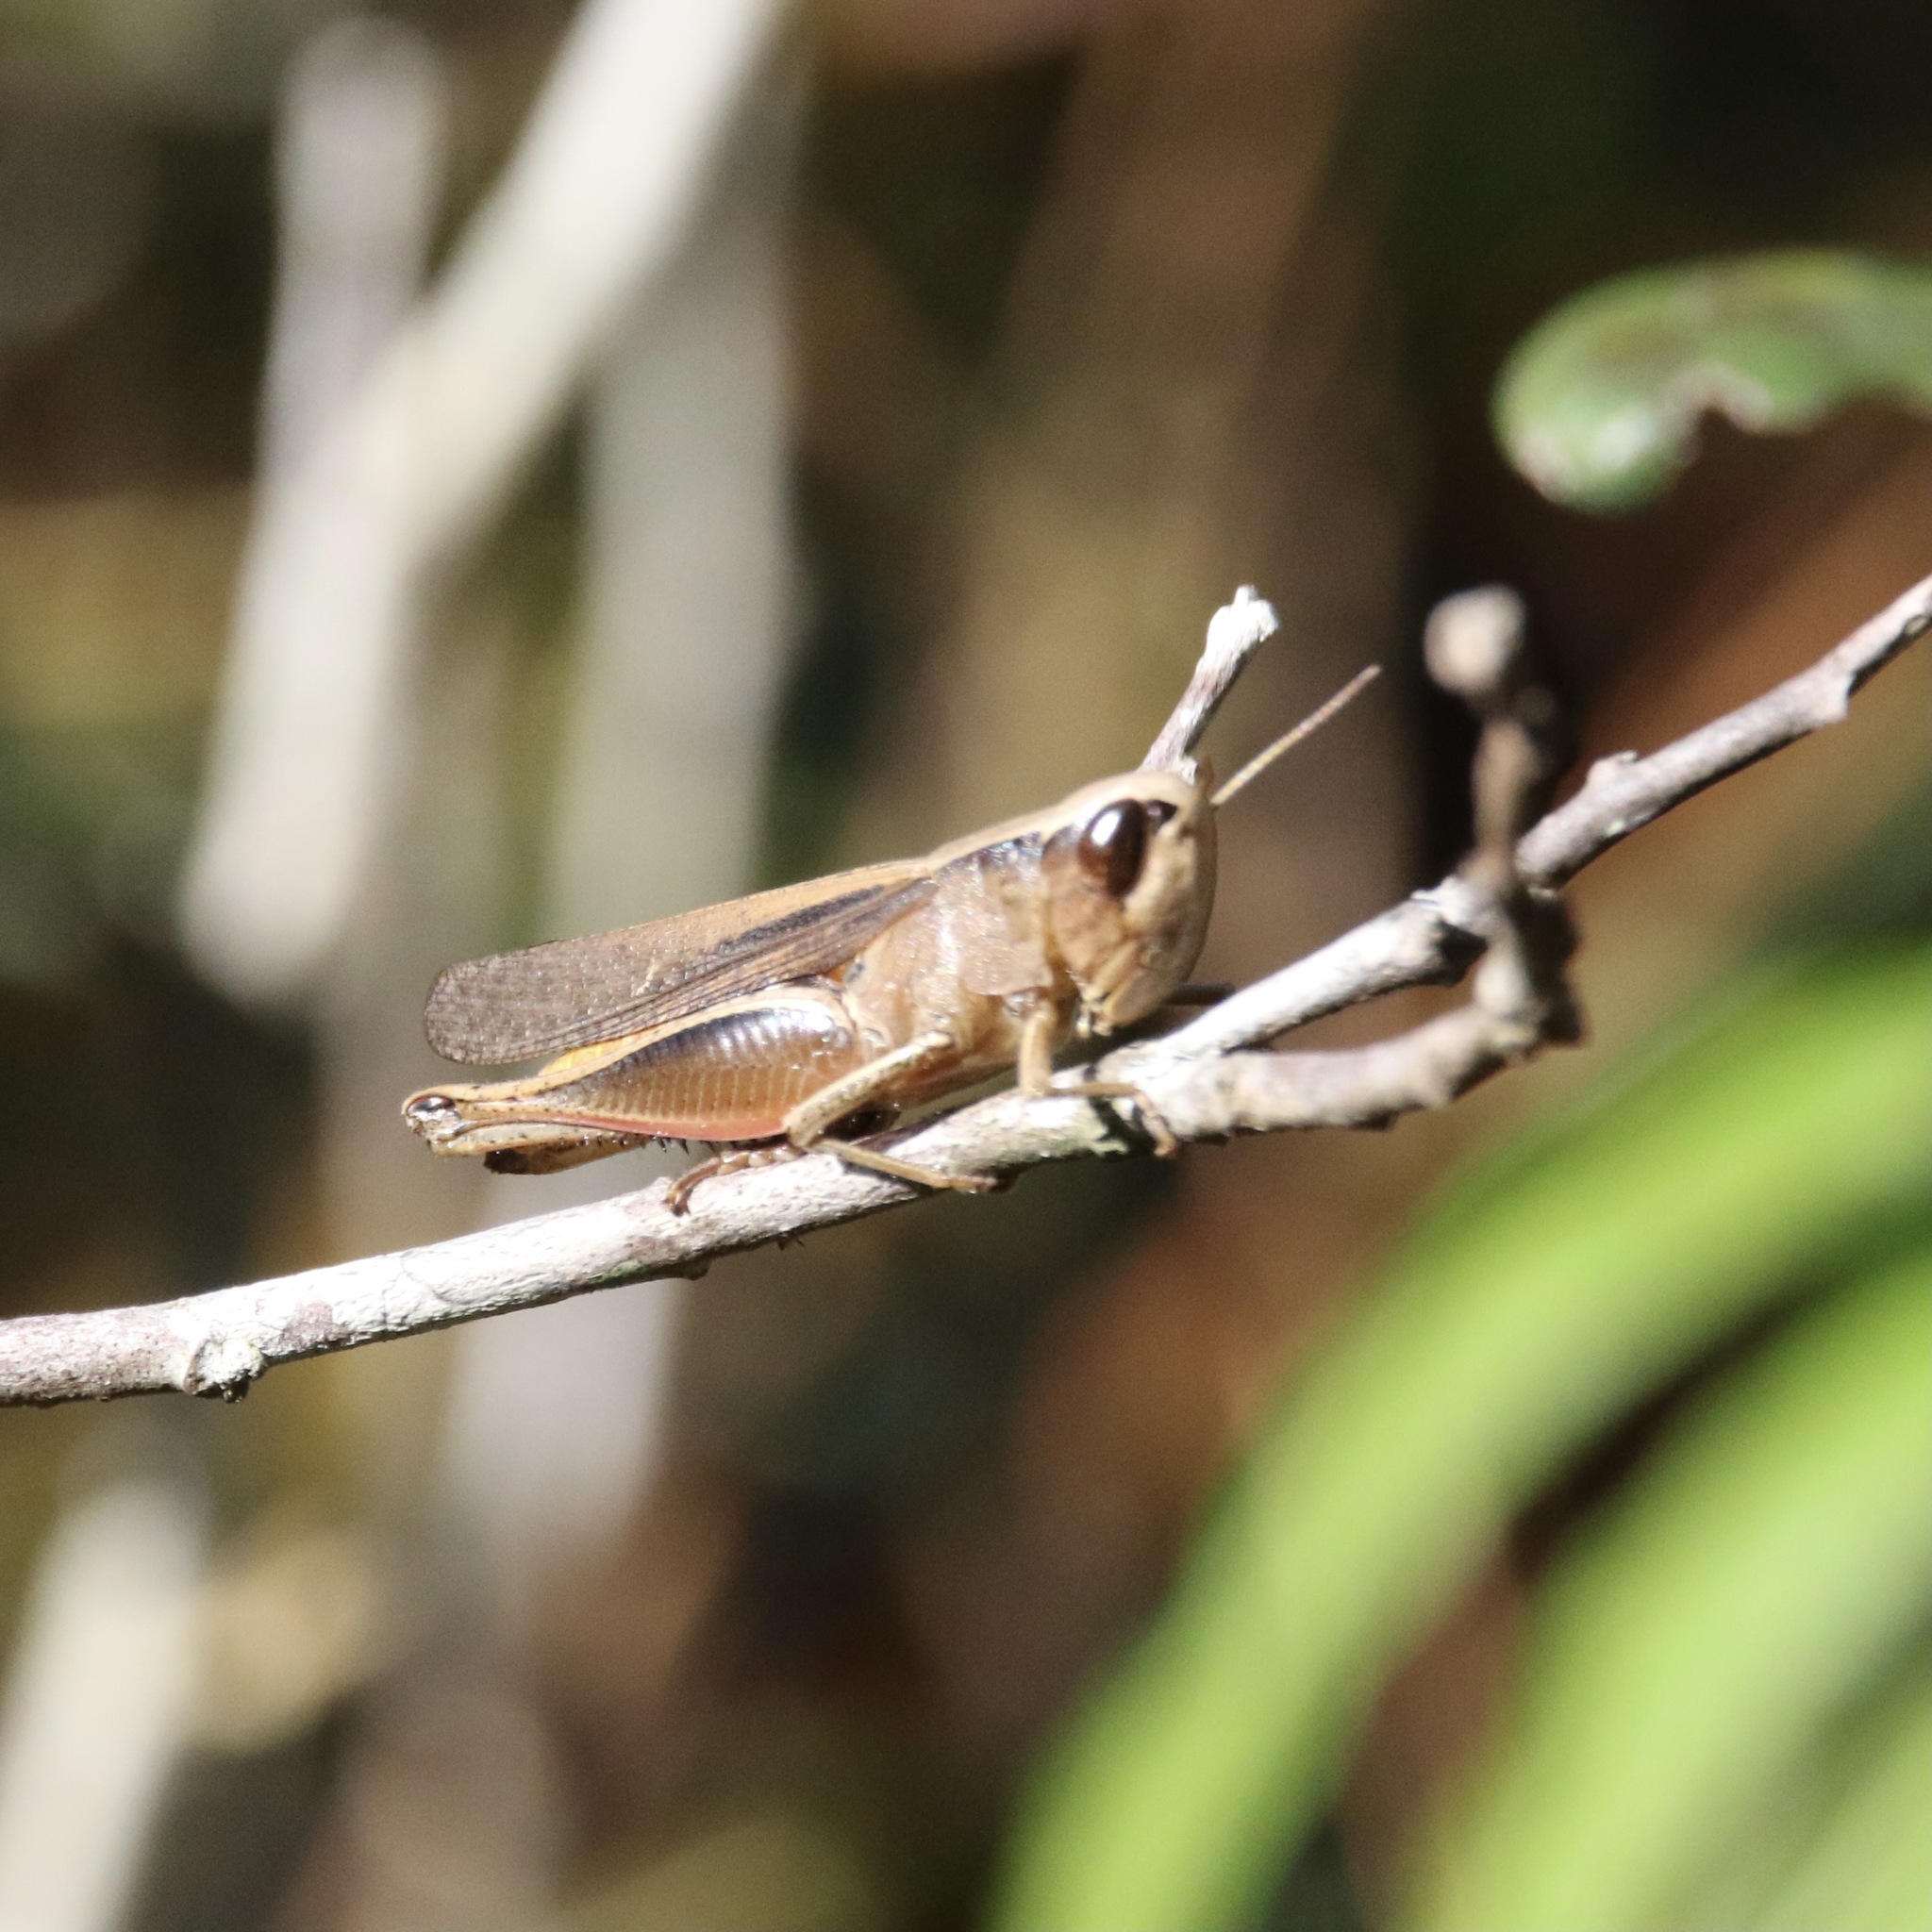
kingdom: Animalia
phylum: Arthropoda
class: Insecta
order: Orthoptera
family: Acrididae
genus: Amblytropidia
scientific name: Amblytropidia mysteca
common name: Brown winter grasshopper
